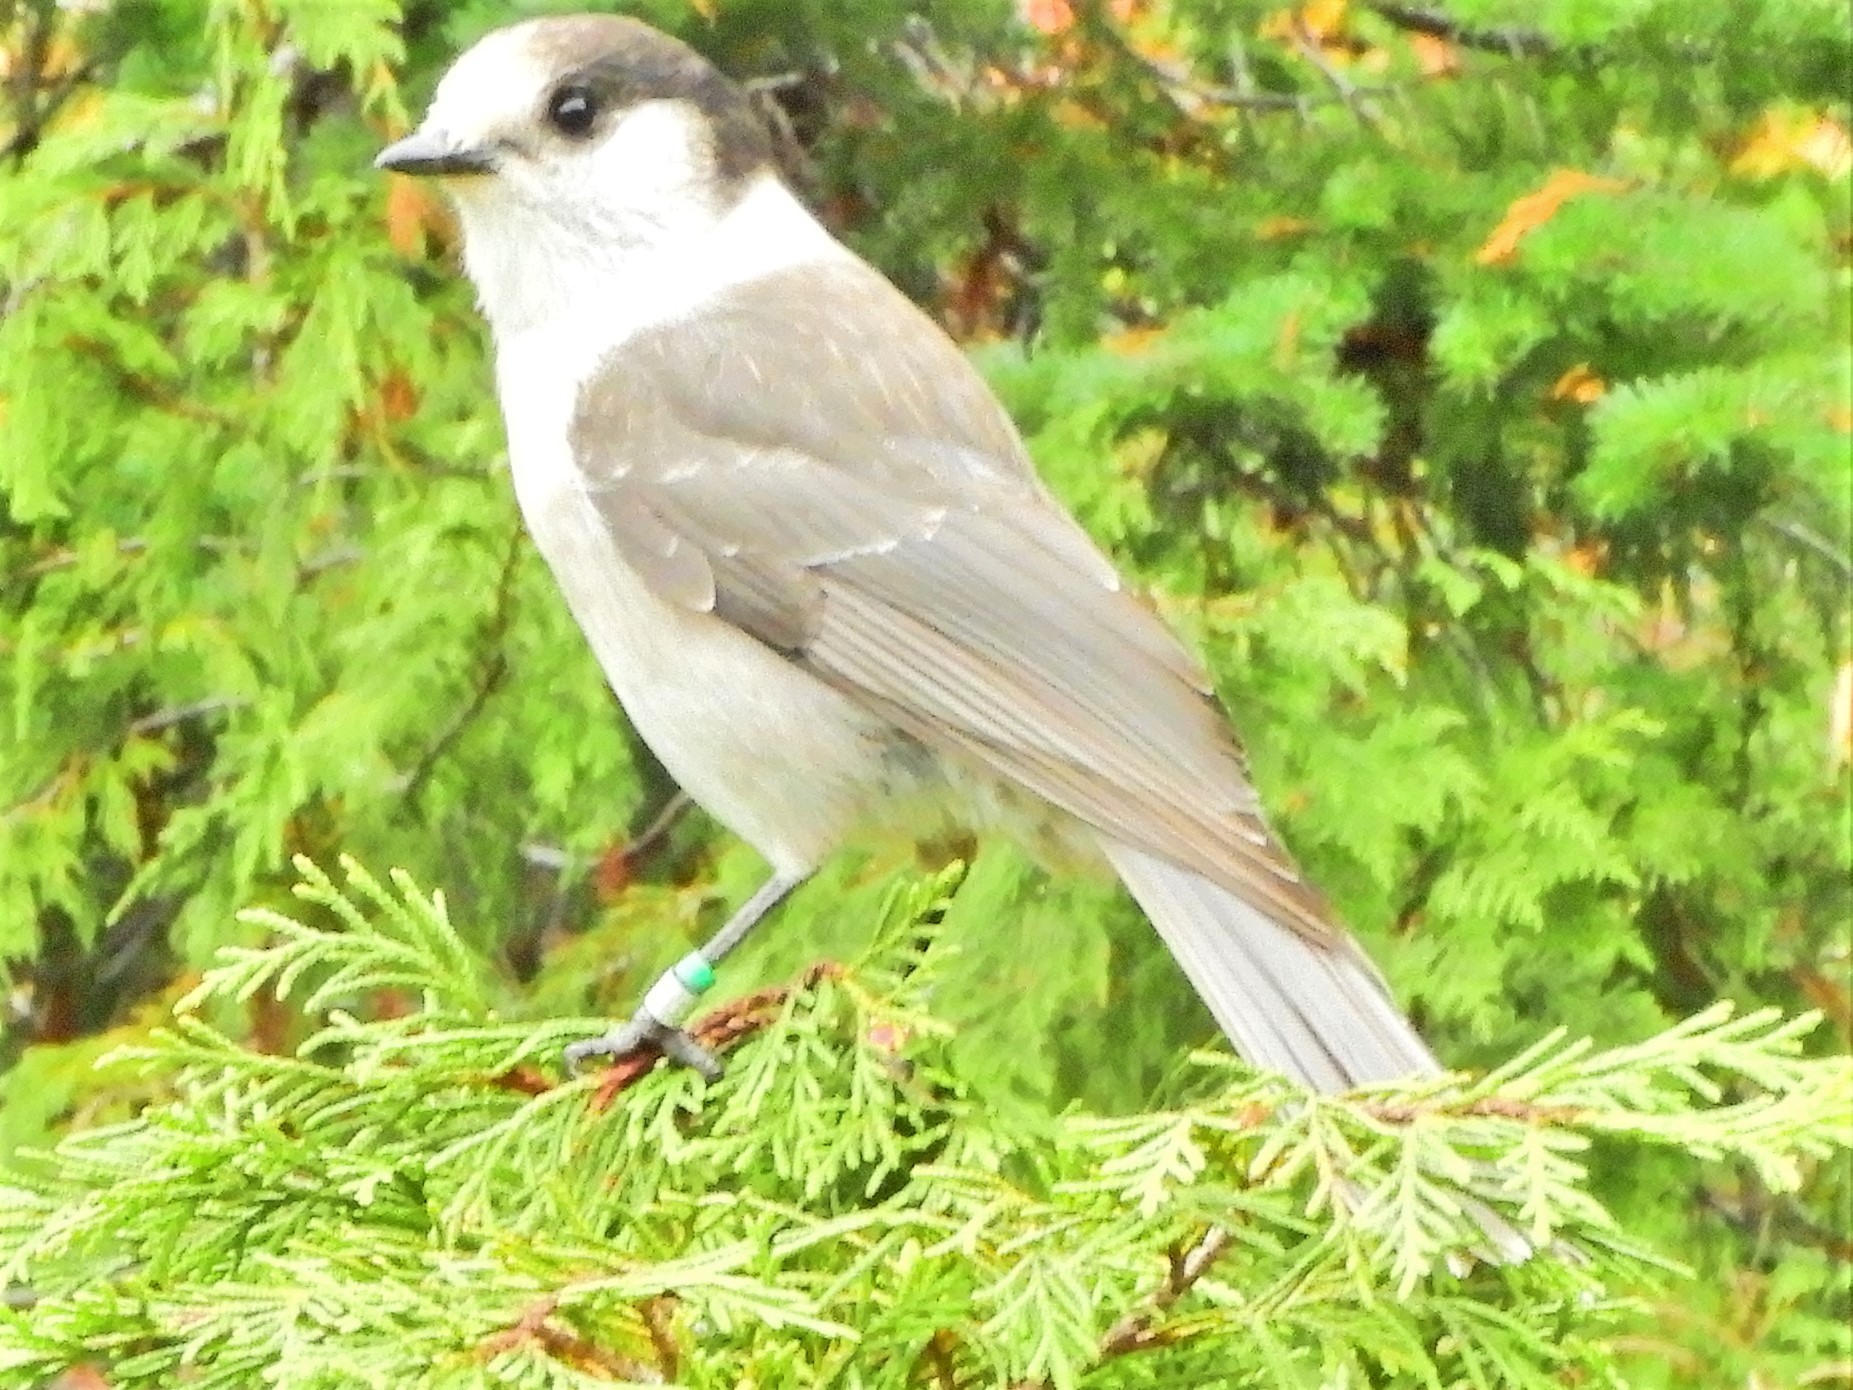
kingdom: Animalia
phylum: Chordata
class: Aves
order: Passeriformes
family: Corvidae
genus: Perisoreus
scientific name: Perisoreus canadensis
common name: Gray jay
